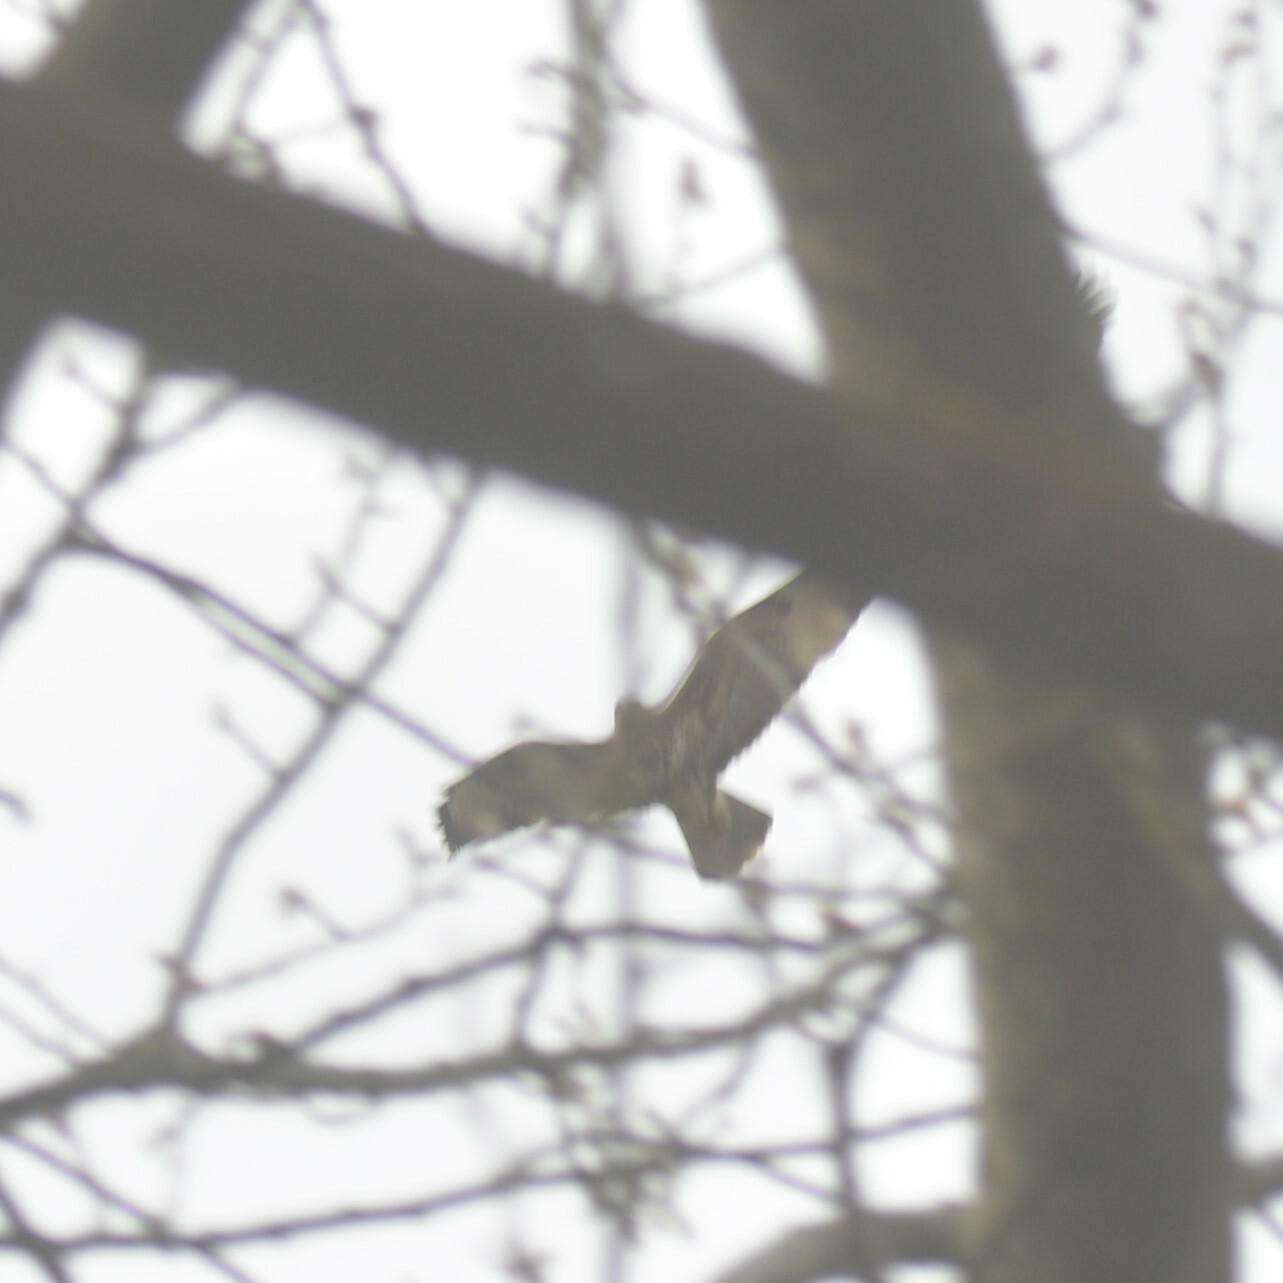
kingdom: Animalia
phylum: Chordata
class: Aves
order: Accipitriformes
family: Accipitridae
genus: Buteo
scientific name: Buteo buteo
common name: Common buzzard
